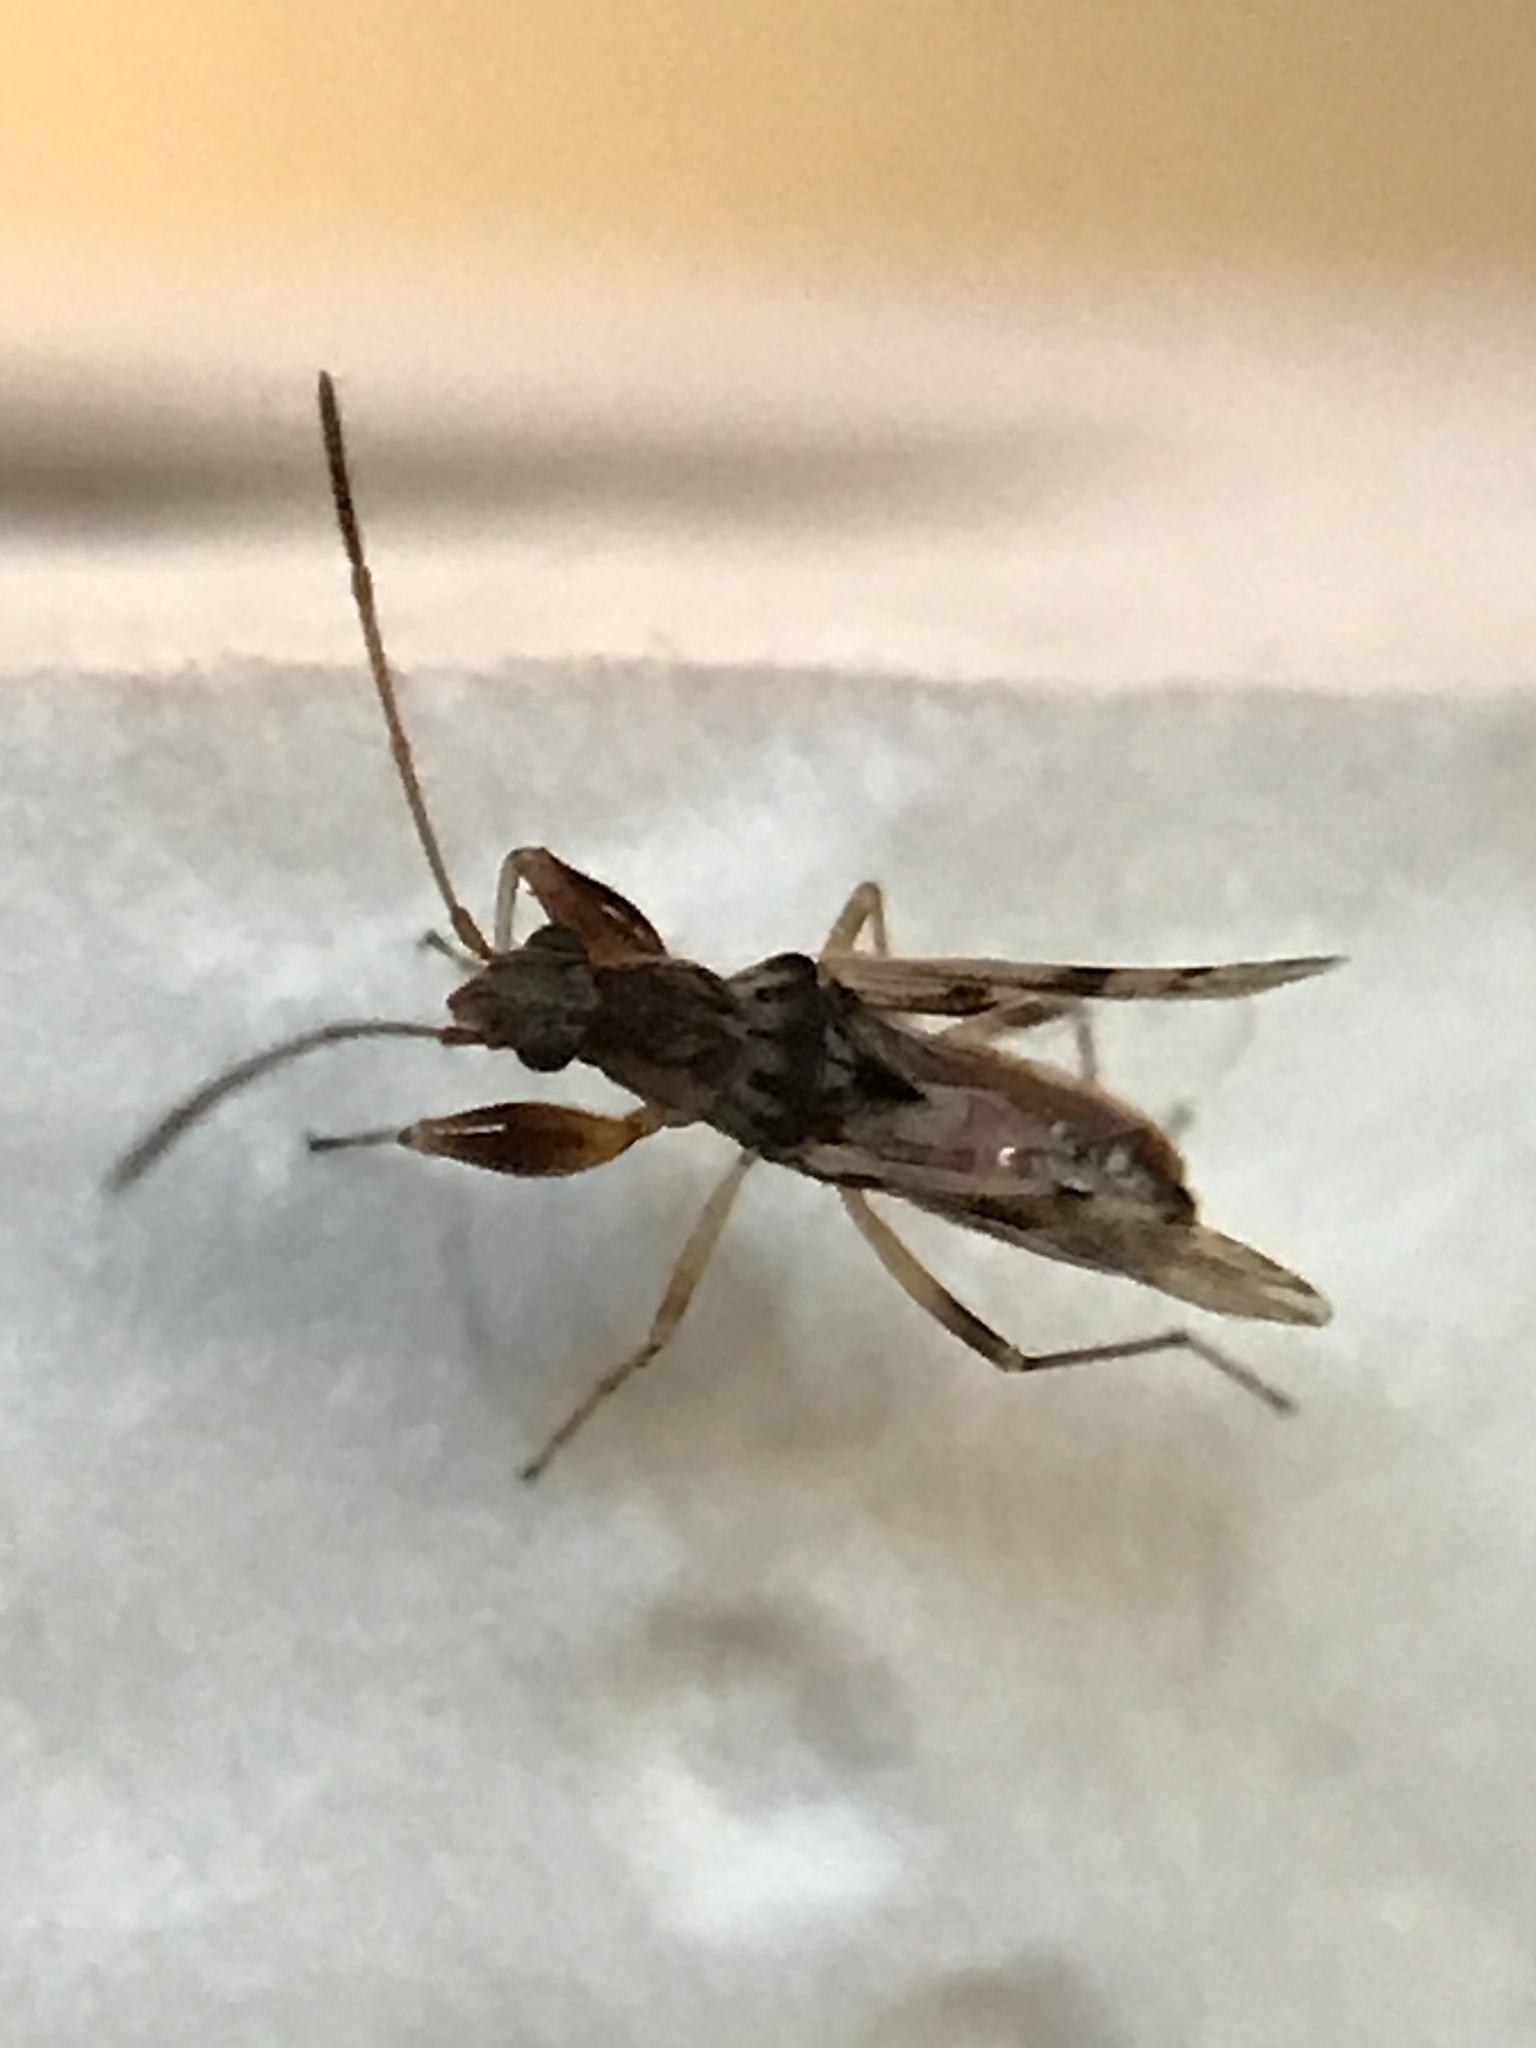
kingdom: Animalia
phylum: Arthropoda
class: Insecta
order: Hemiptera
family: Rhyparochromidae
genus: Neopamera
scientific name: Neopamera bilobata
